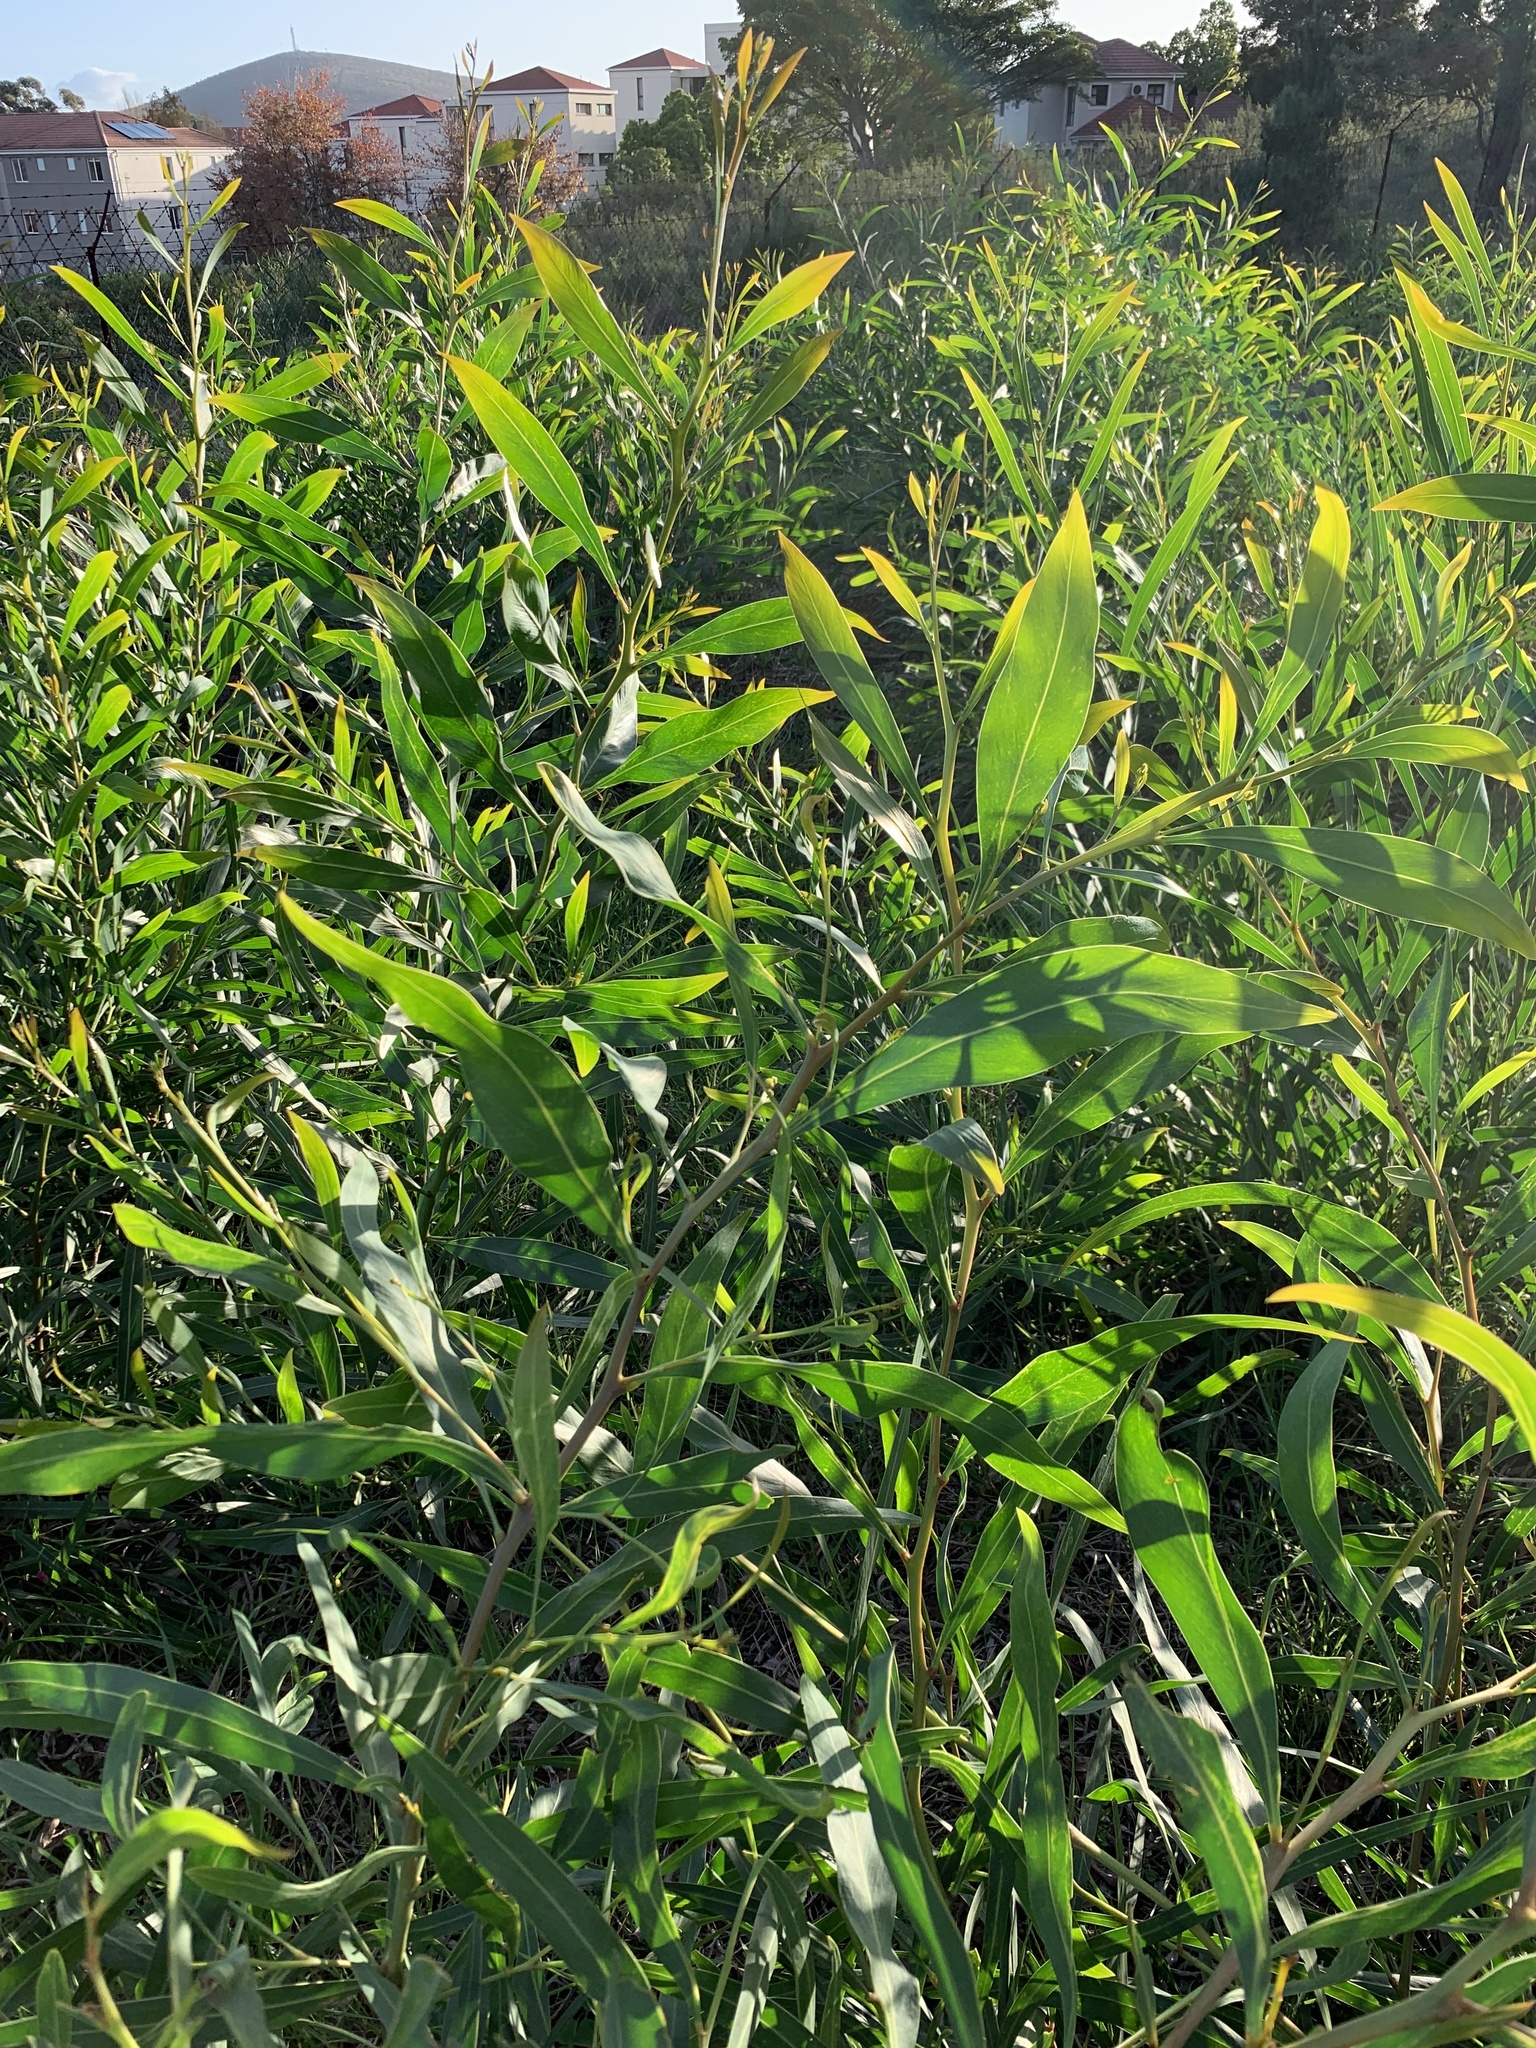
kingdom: Plantae
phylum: Tracheophyta
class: Magnoliopsida
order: Fabales
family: Fabaceae
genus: Acacia
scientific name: Acacia saligna
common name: Orange wattle
